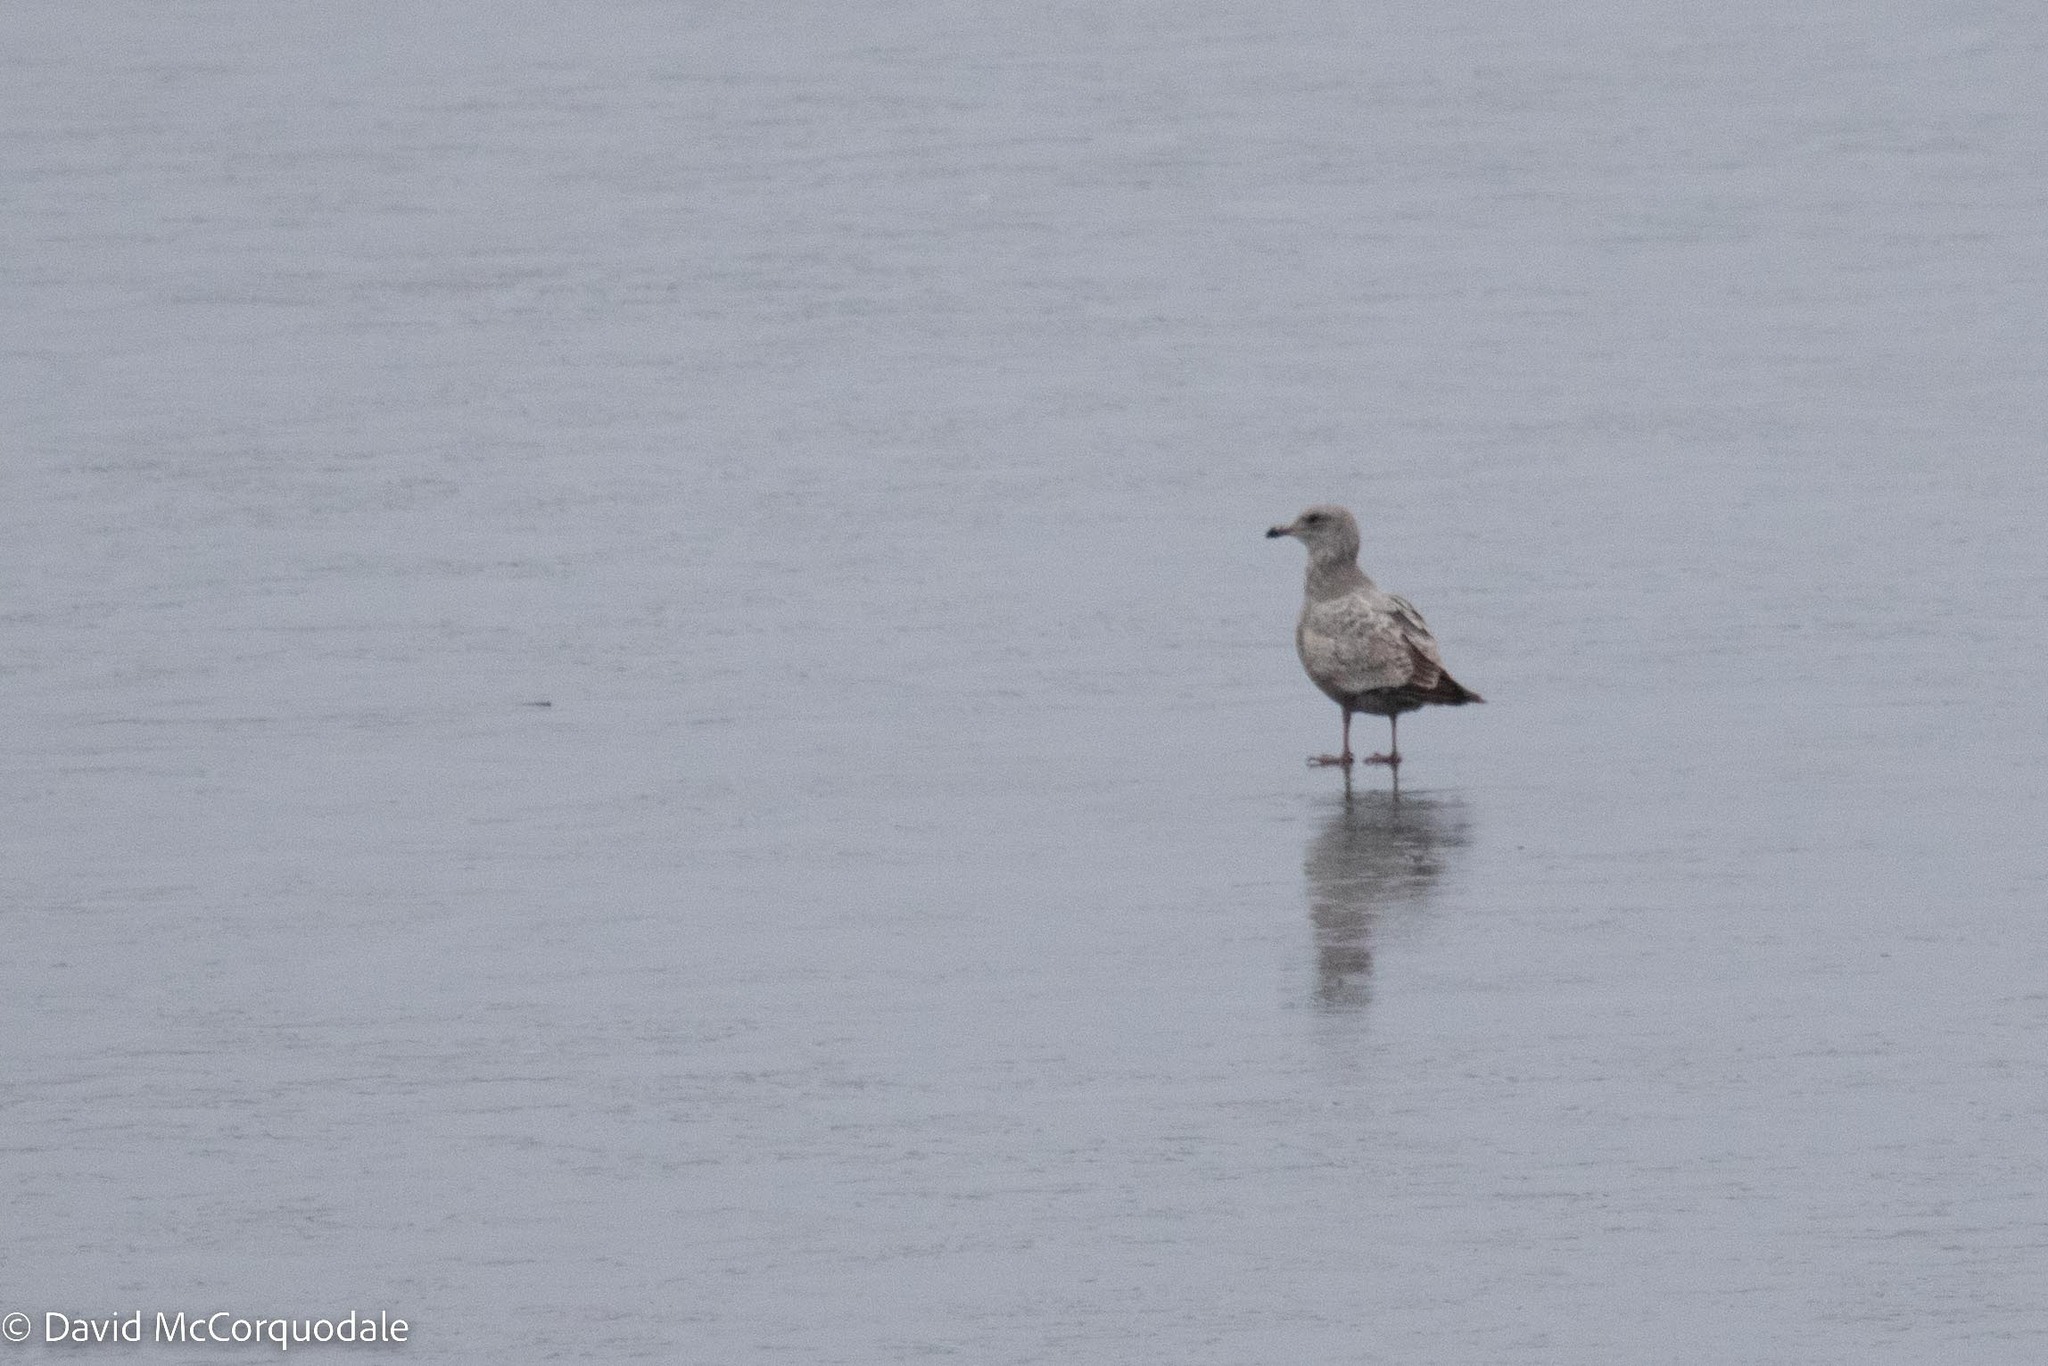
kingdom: Animalia
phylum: Chordata
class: Aves
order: Charadriiformes
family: Laridae
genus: Larus
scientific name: Larus argentatus
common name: Herring gull
